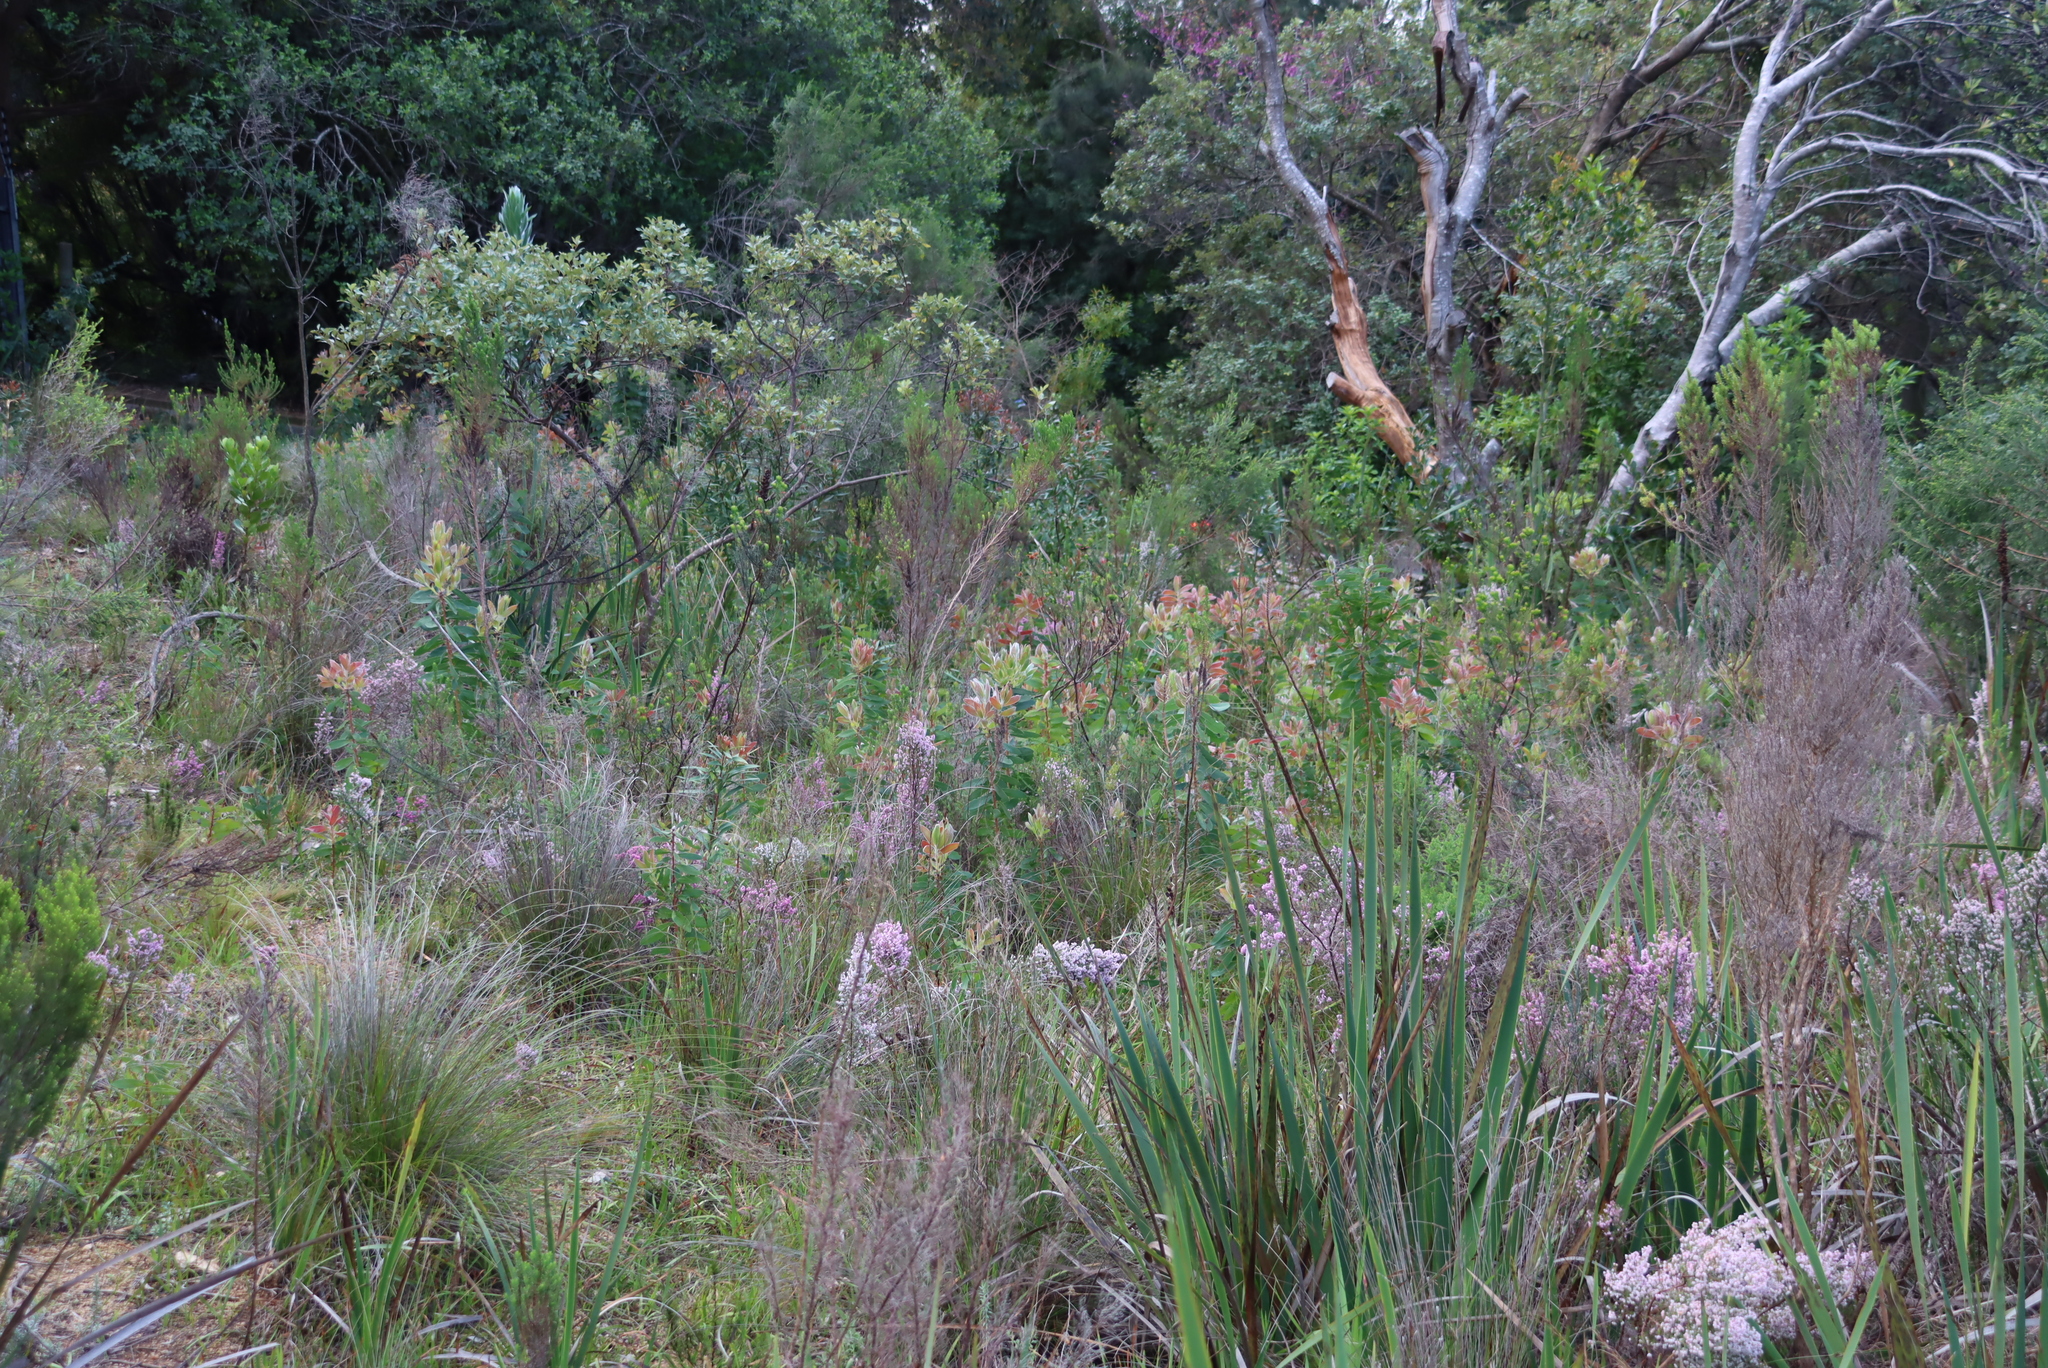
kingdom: Plantae
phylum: Tracheophyta
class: Magnoliopsida
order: Proteales
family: Proteaceae
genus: Protea
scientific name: Protea mundii
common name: Forest sugarbush
